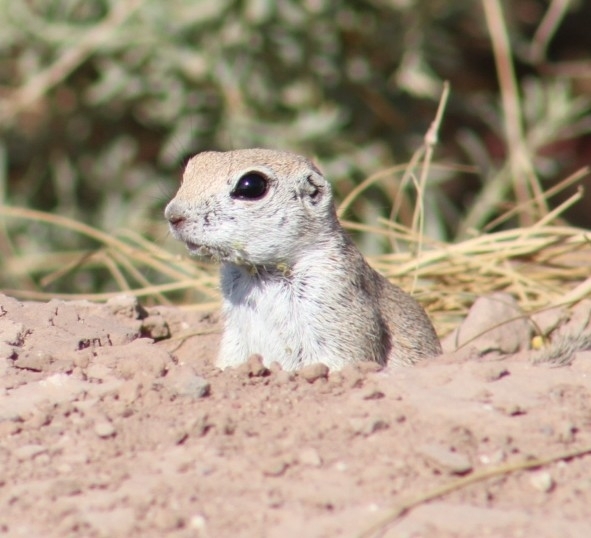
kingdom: Animalia
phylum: Chordata
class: Mammalia
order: Rodentia
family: Sciuridae
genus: Xerospermophilus
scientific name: Xerospermophilus tereticaudus
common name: Round-tailed ground squirrel
